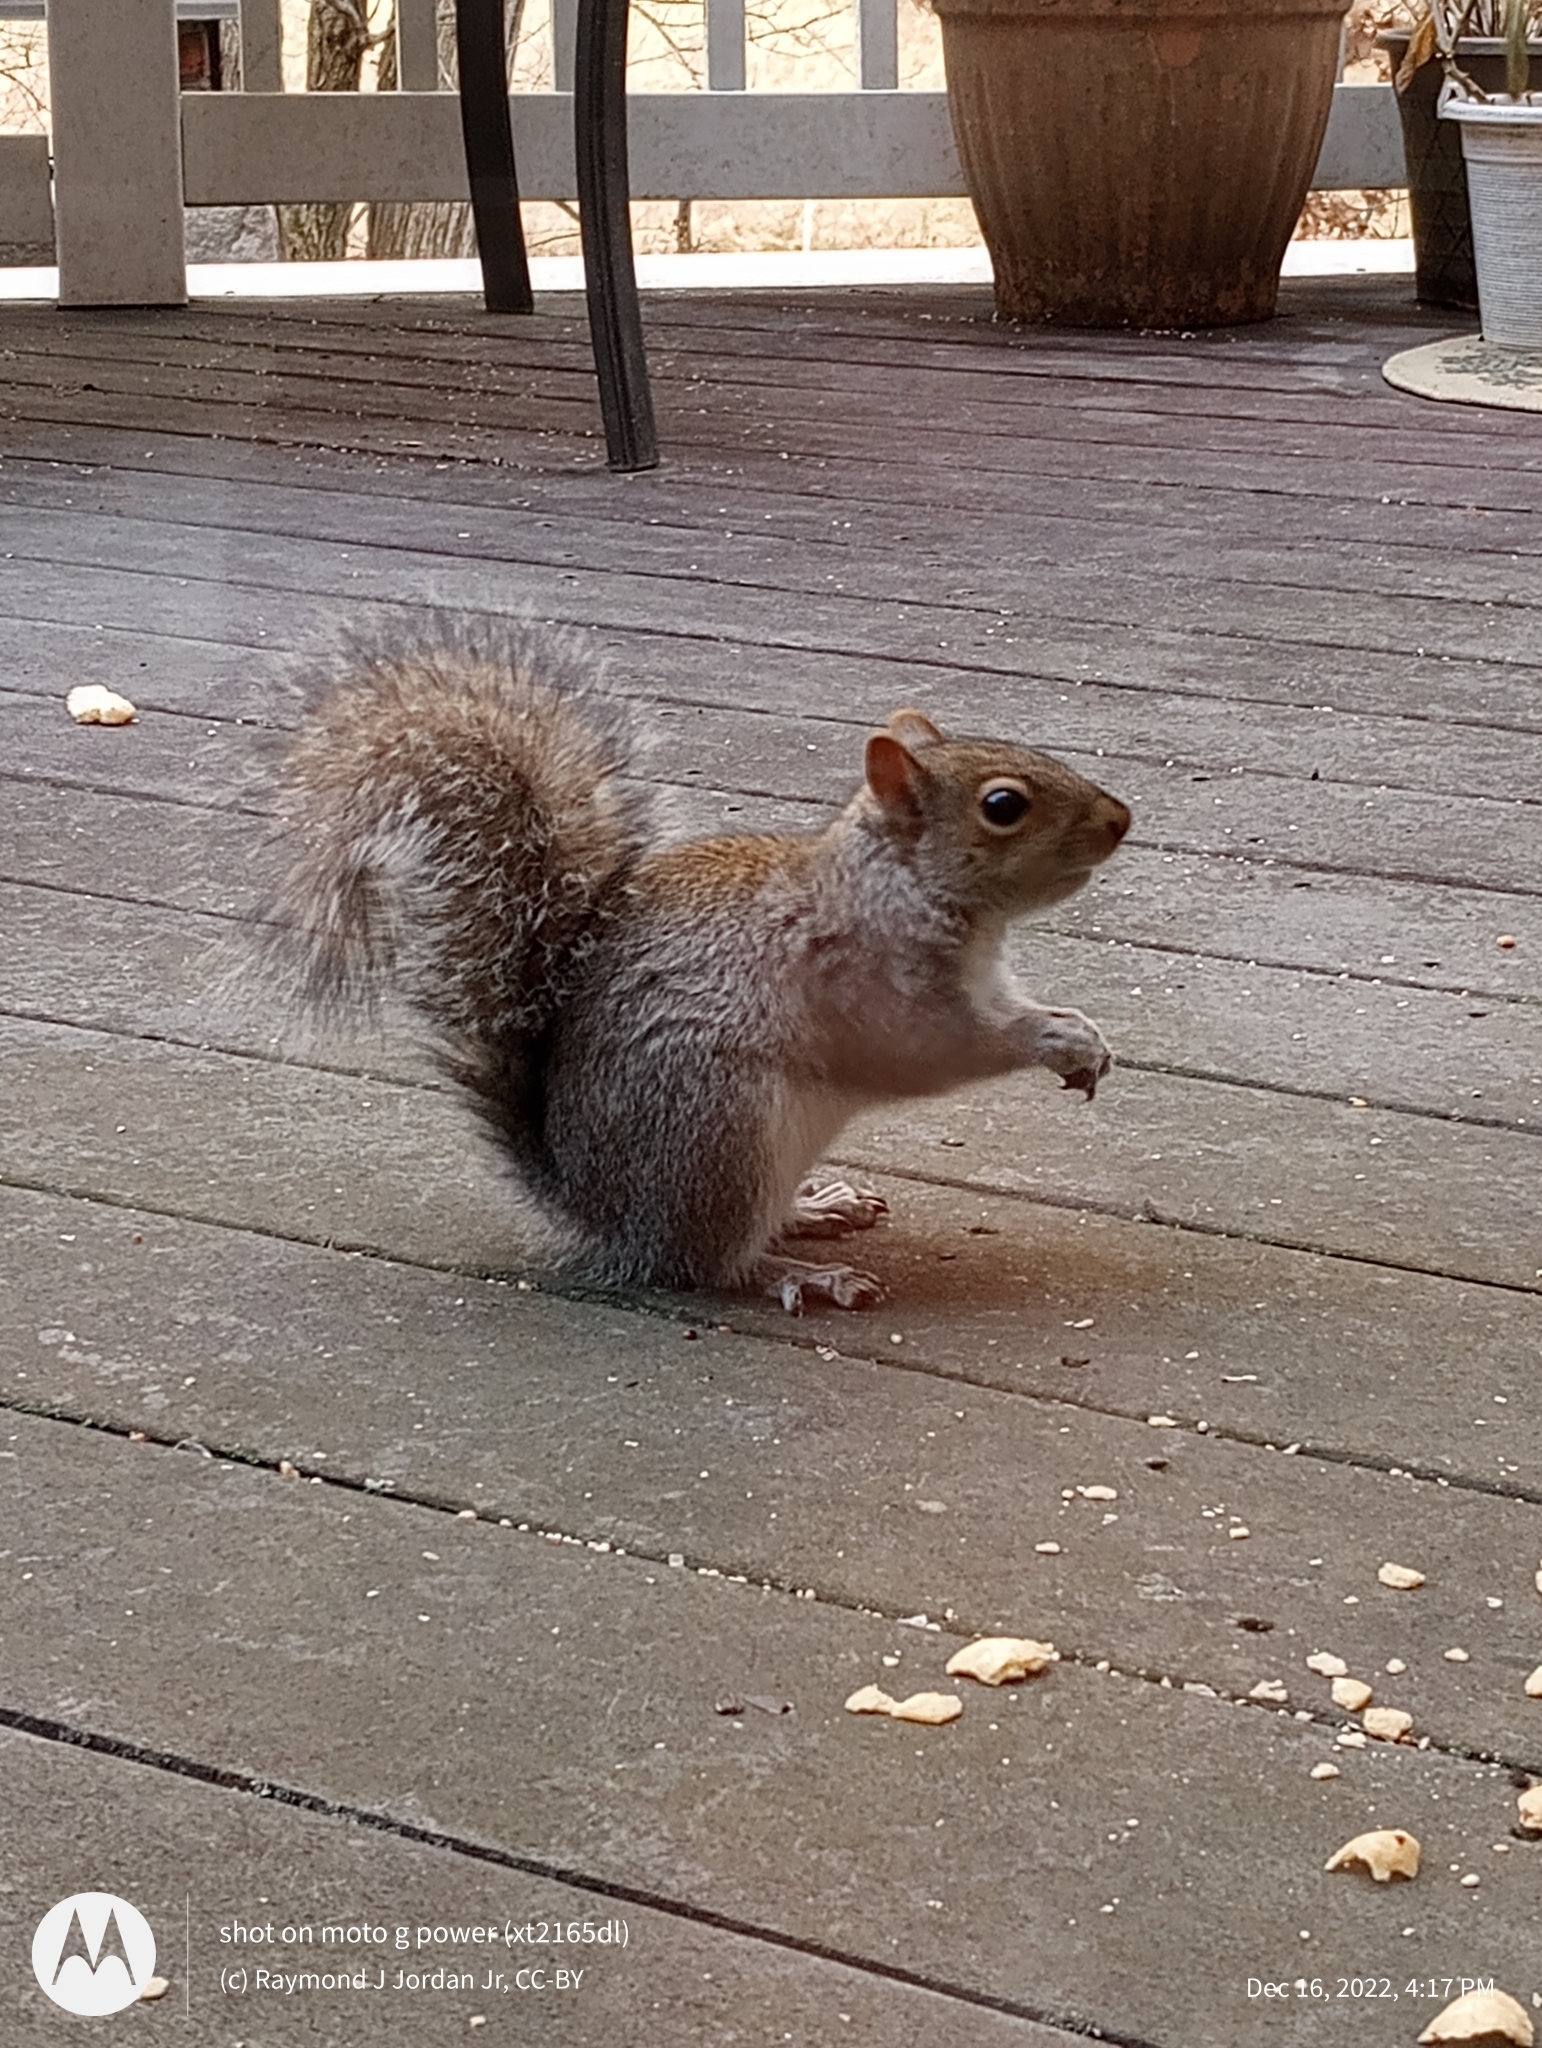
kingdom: Animalia
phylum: Chordata
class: Mammalia
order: Rodentia
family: Sciuridae
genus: Sciurus
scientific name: Sciurus carolinensis
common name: Eastern gray squirrel
